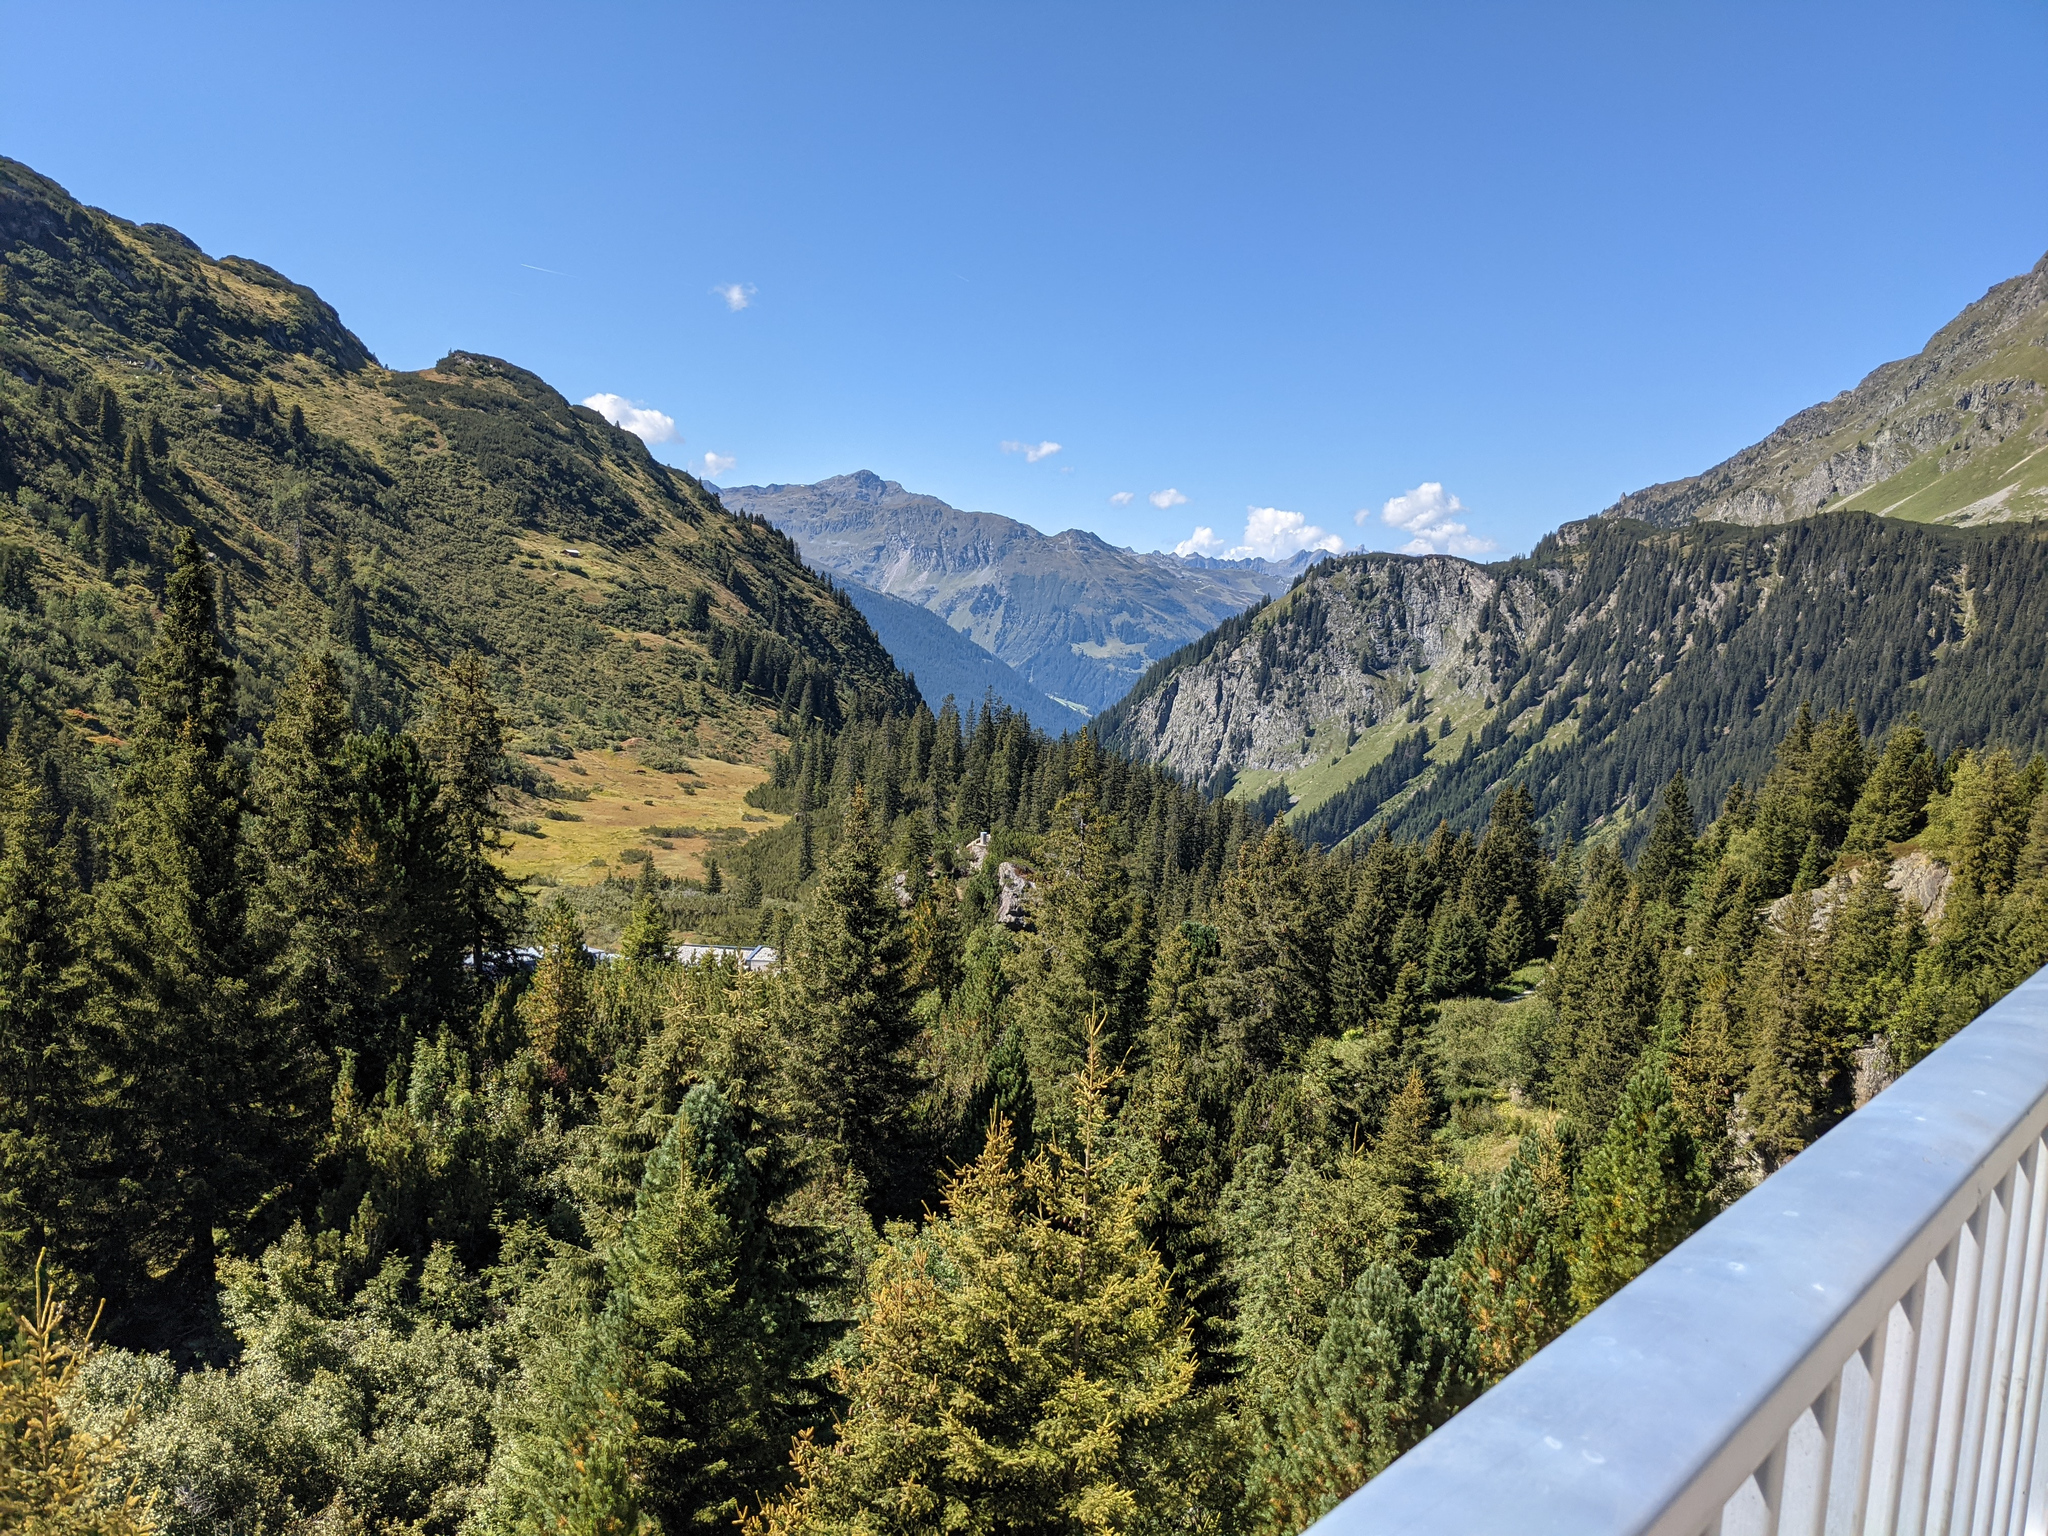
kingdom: Plantae
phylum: Tracheophyta
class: Pinopsida
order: Pinales
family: Pinaceae
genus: Picea
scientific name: Picea abies
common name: Norway spruce
